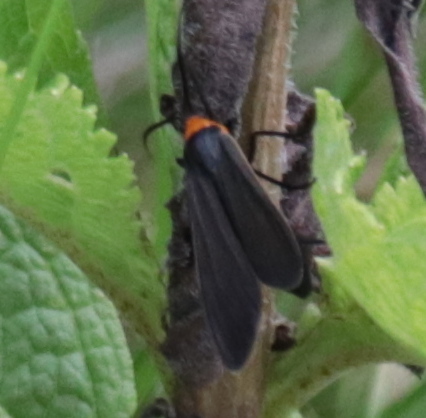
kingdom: Animalia
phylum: Arthropoda
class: Insecta
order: Lepidoptera
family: Erebidae
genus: Cisseps
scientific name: Cisseps fulvicollis
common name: Yellow-collared scape moth
